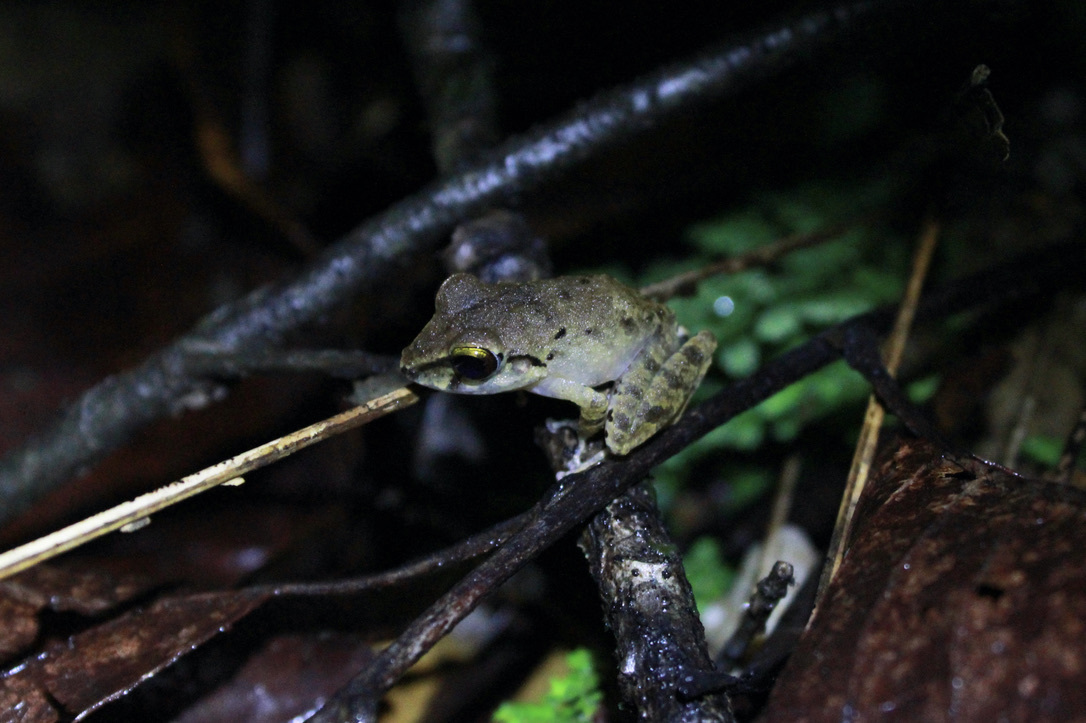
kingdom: Animalia
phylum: Chordata
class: Amphibia
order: Anura
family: Craugastoridae
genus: Pristimantis
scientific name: Pristimantis charlottevillensis
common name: Charlotteville leaf-litter frog
